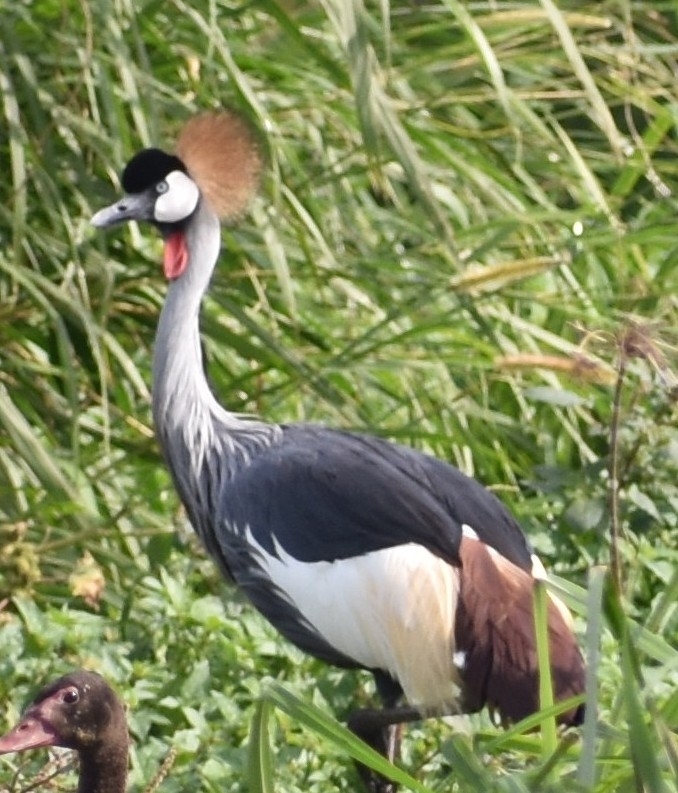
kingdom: Animalia
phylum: Chordata
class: Aves
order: Gruiformes
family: Gruidae
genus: Balearica
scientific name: Balearica regulorum
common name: Grey crowned crane
